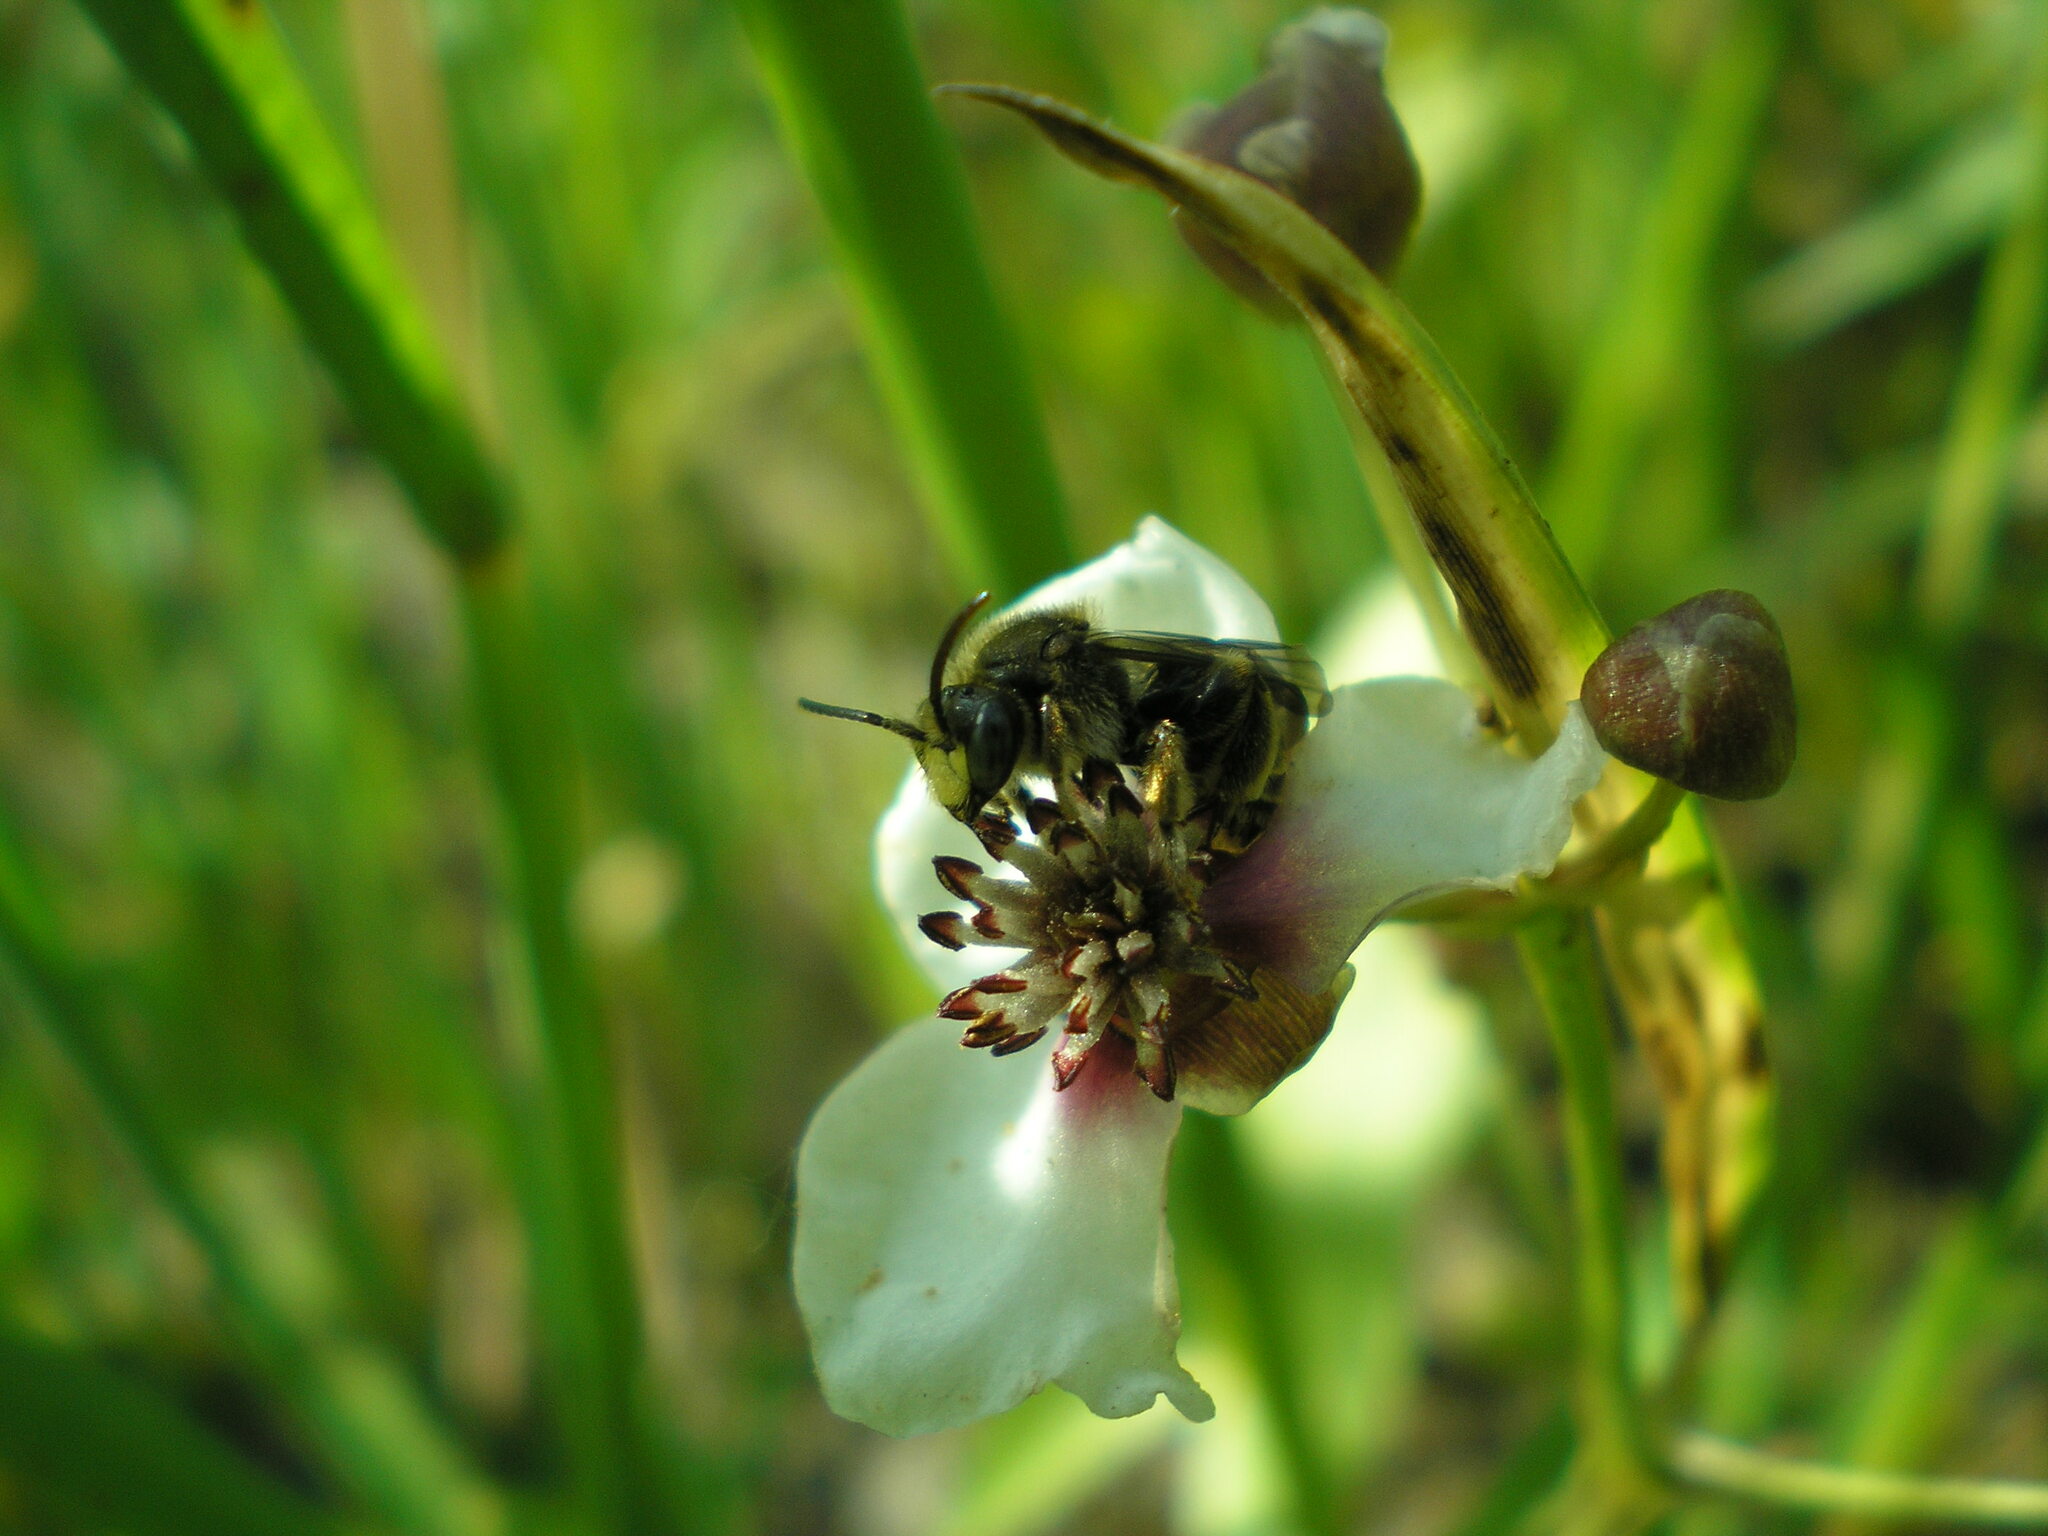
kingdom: Animalia
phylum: Arthropoda
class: Insecta
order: Hymenoptera
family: Melittidae
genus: Macropis
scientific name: Macropis europaea
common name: Yellow loosestrife bee
